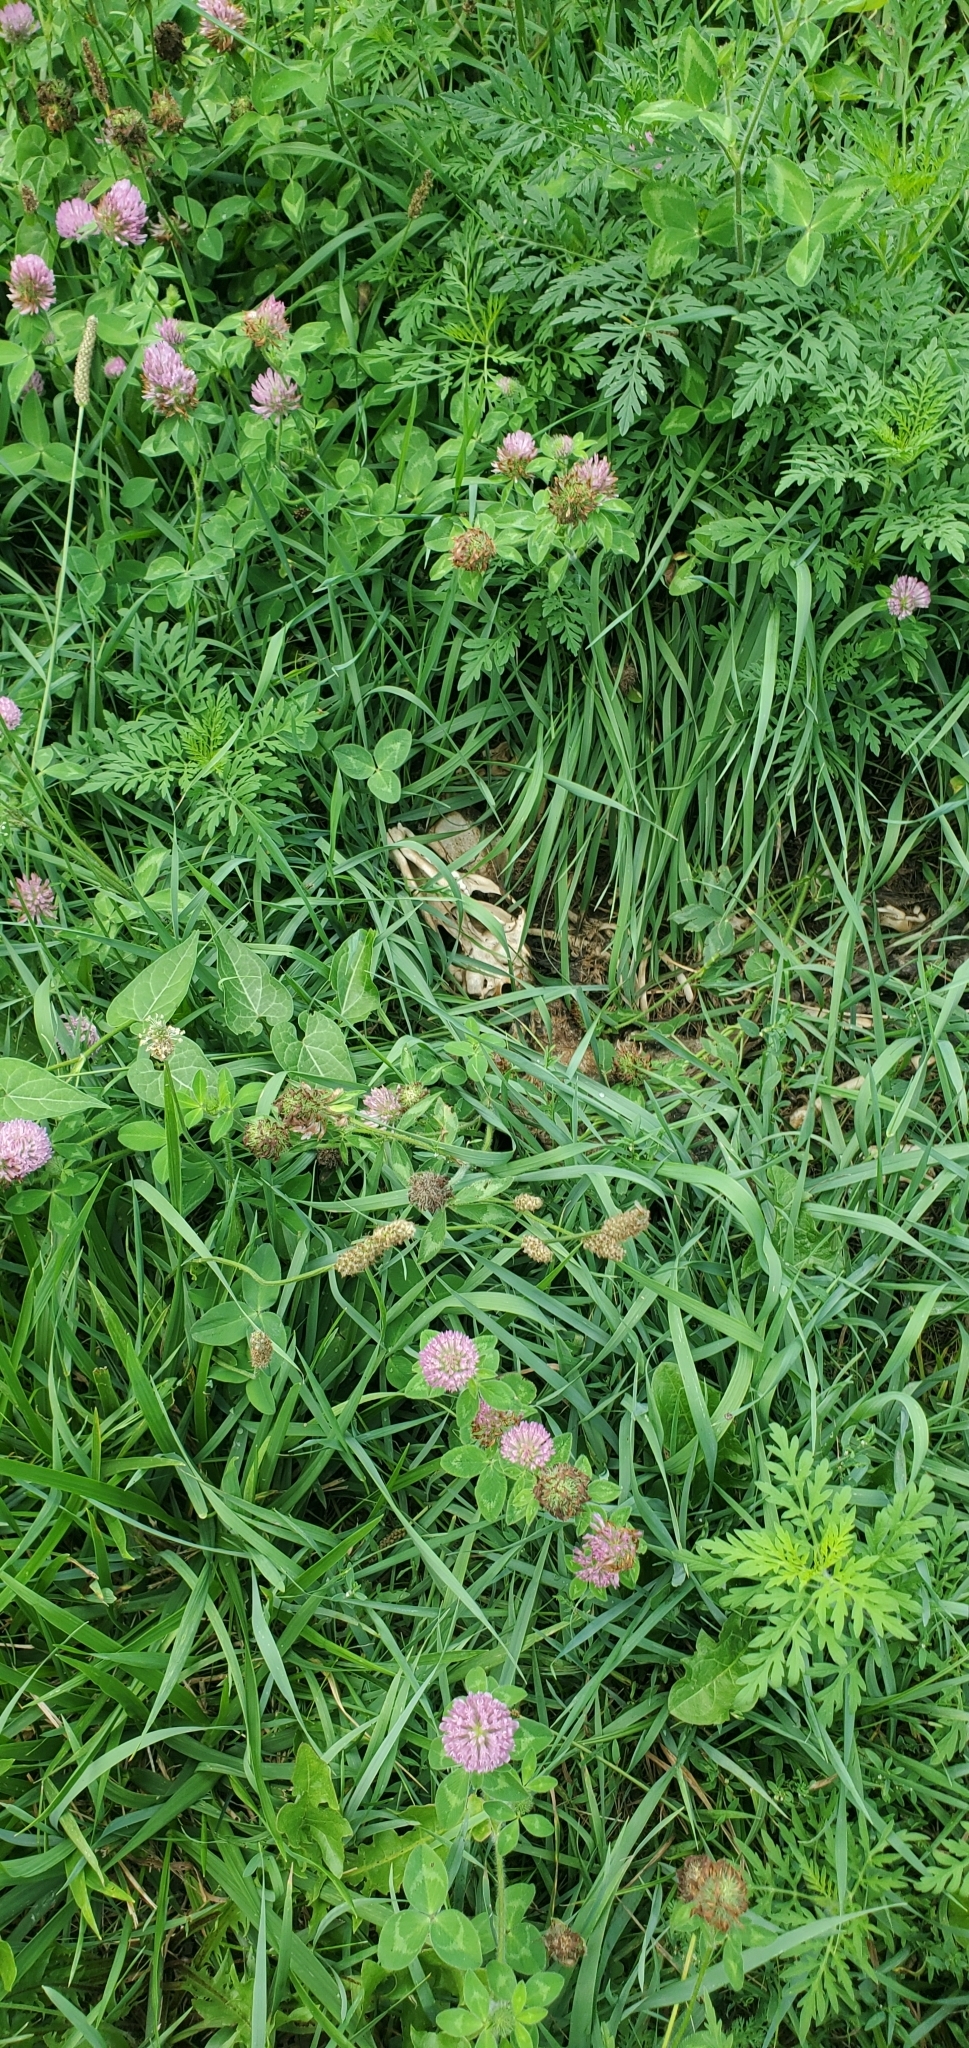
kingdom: Animalia
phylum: Chordata
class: Mammalia
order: Carnivora
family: Canidae
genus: Vulpes
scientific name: Vulpes vulpes
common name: Red fox
